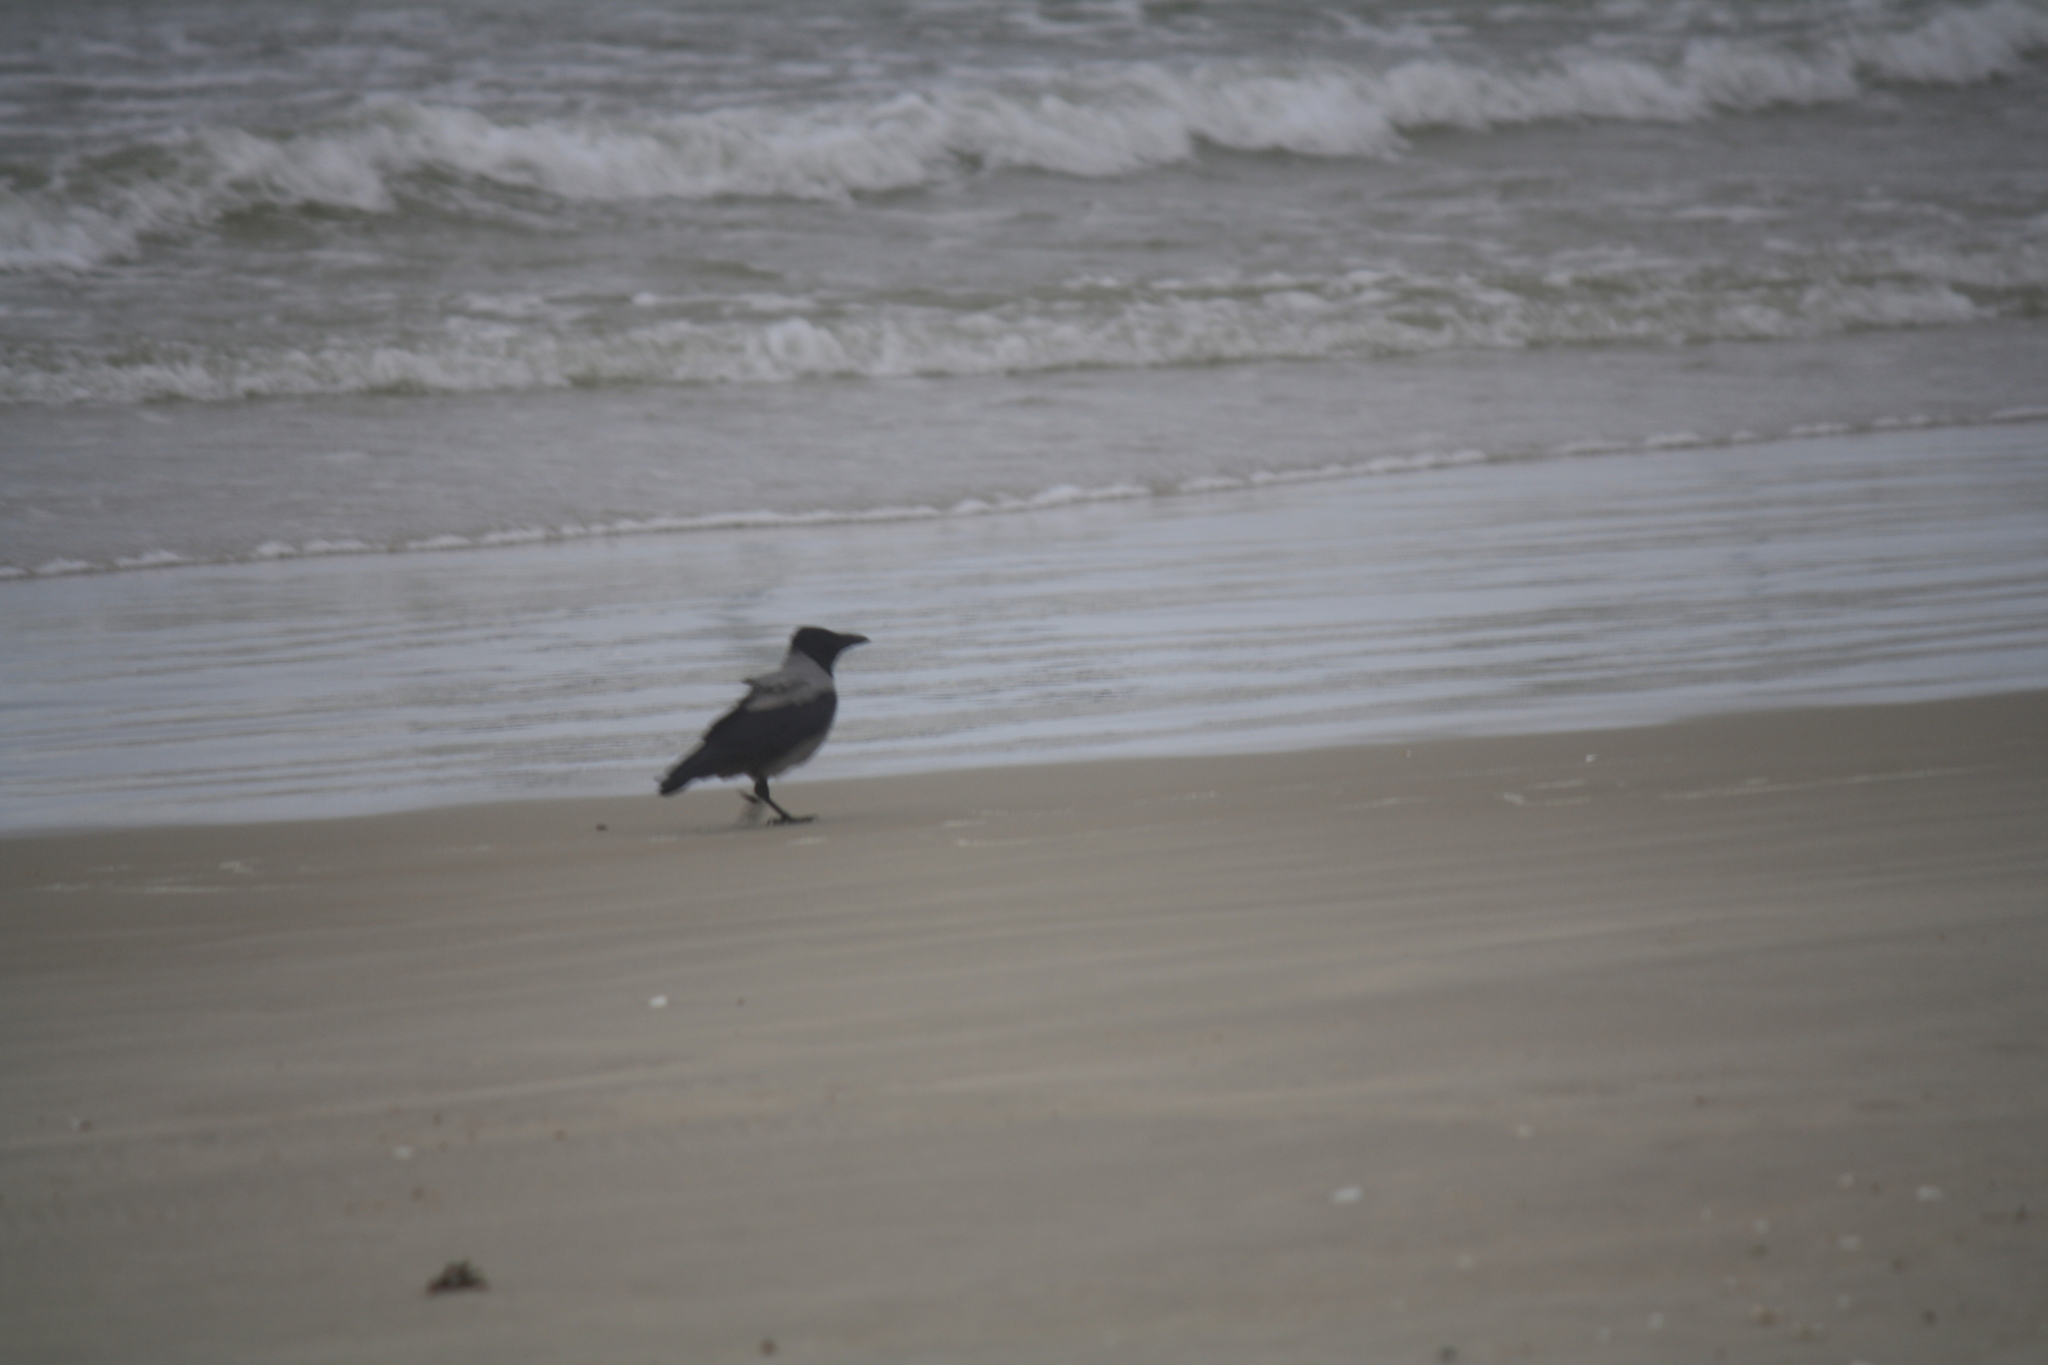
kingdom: Animalia
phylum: Chordata
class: Aves
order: Passeriformes
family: Corvidae
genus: Corvus
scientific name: Corvus cornix
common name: Hooded crow
